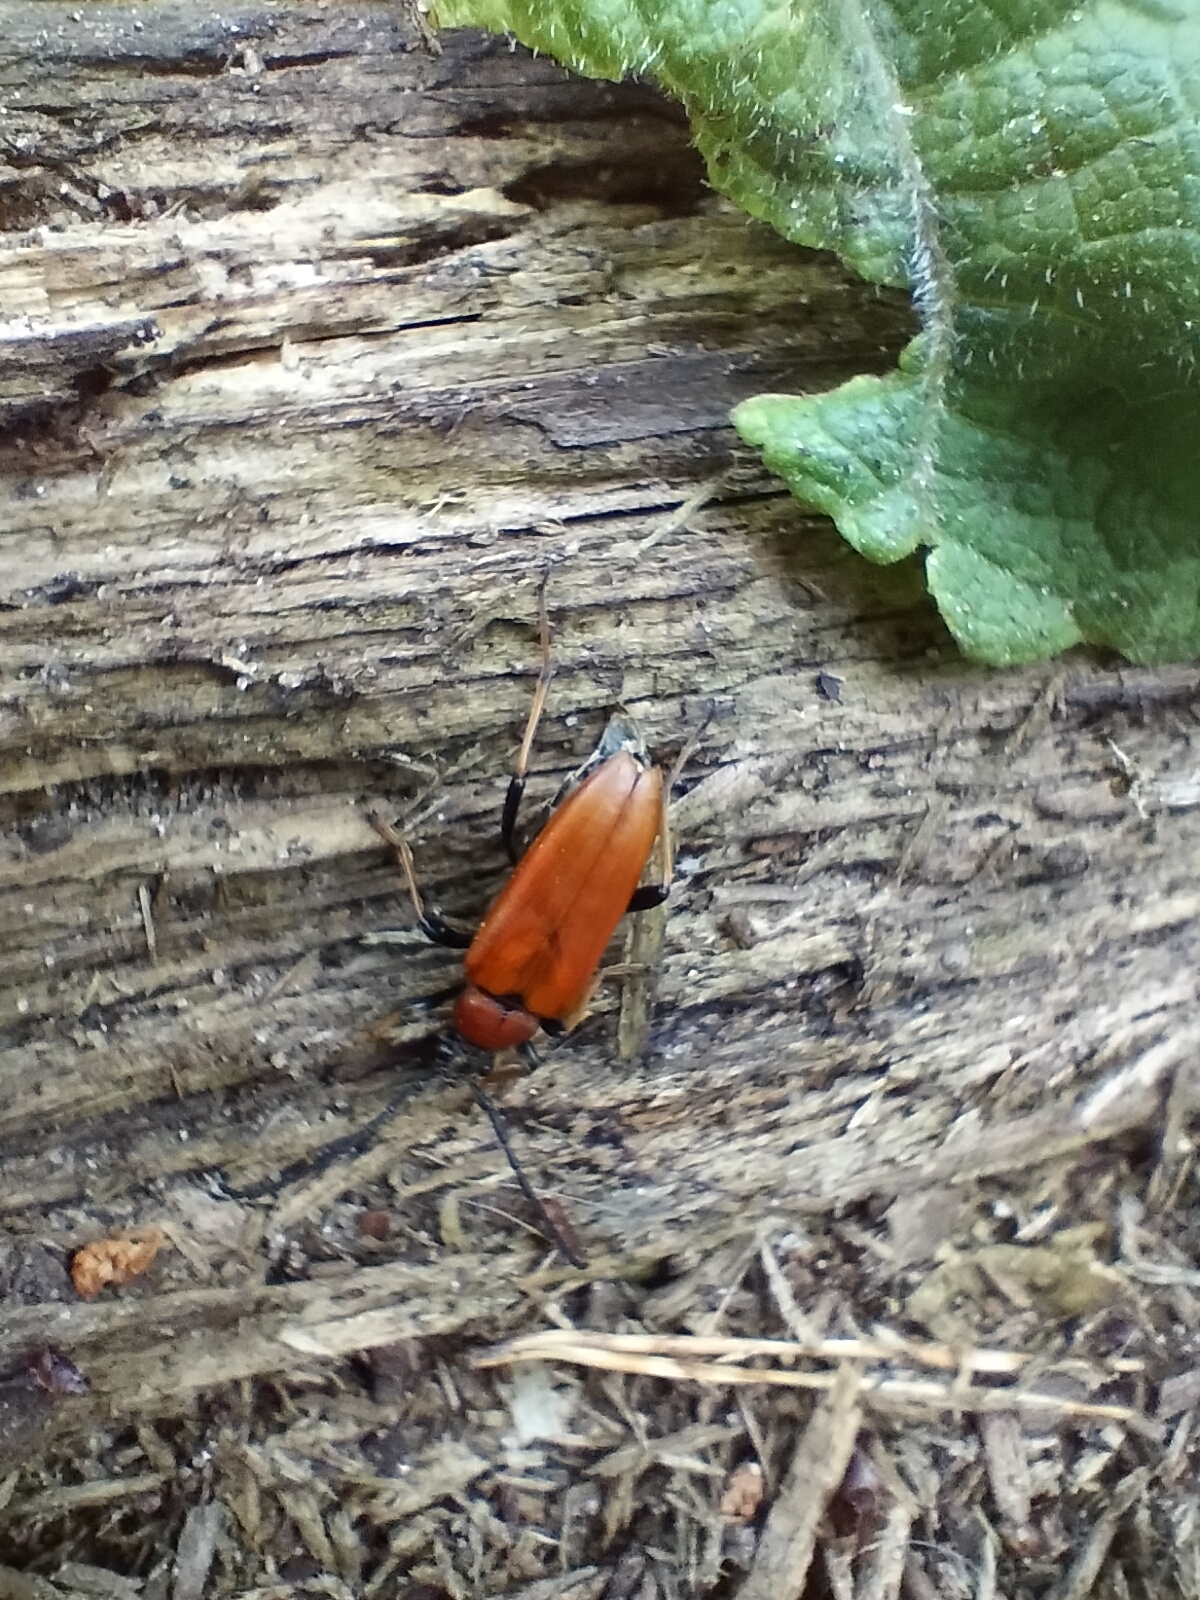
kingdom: Animalia
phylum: Arthropoda
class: Insecta
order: Coleoptera
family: Cerambycidae
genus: Stictoleptura
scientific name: Stictoleptura rubra
